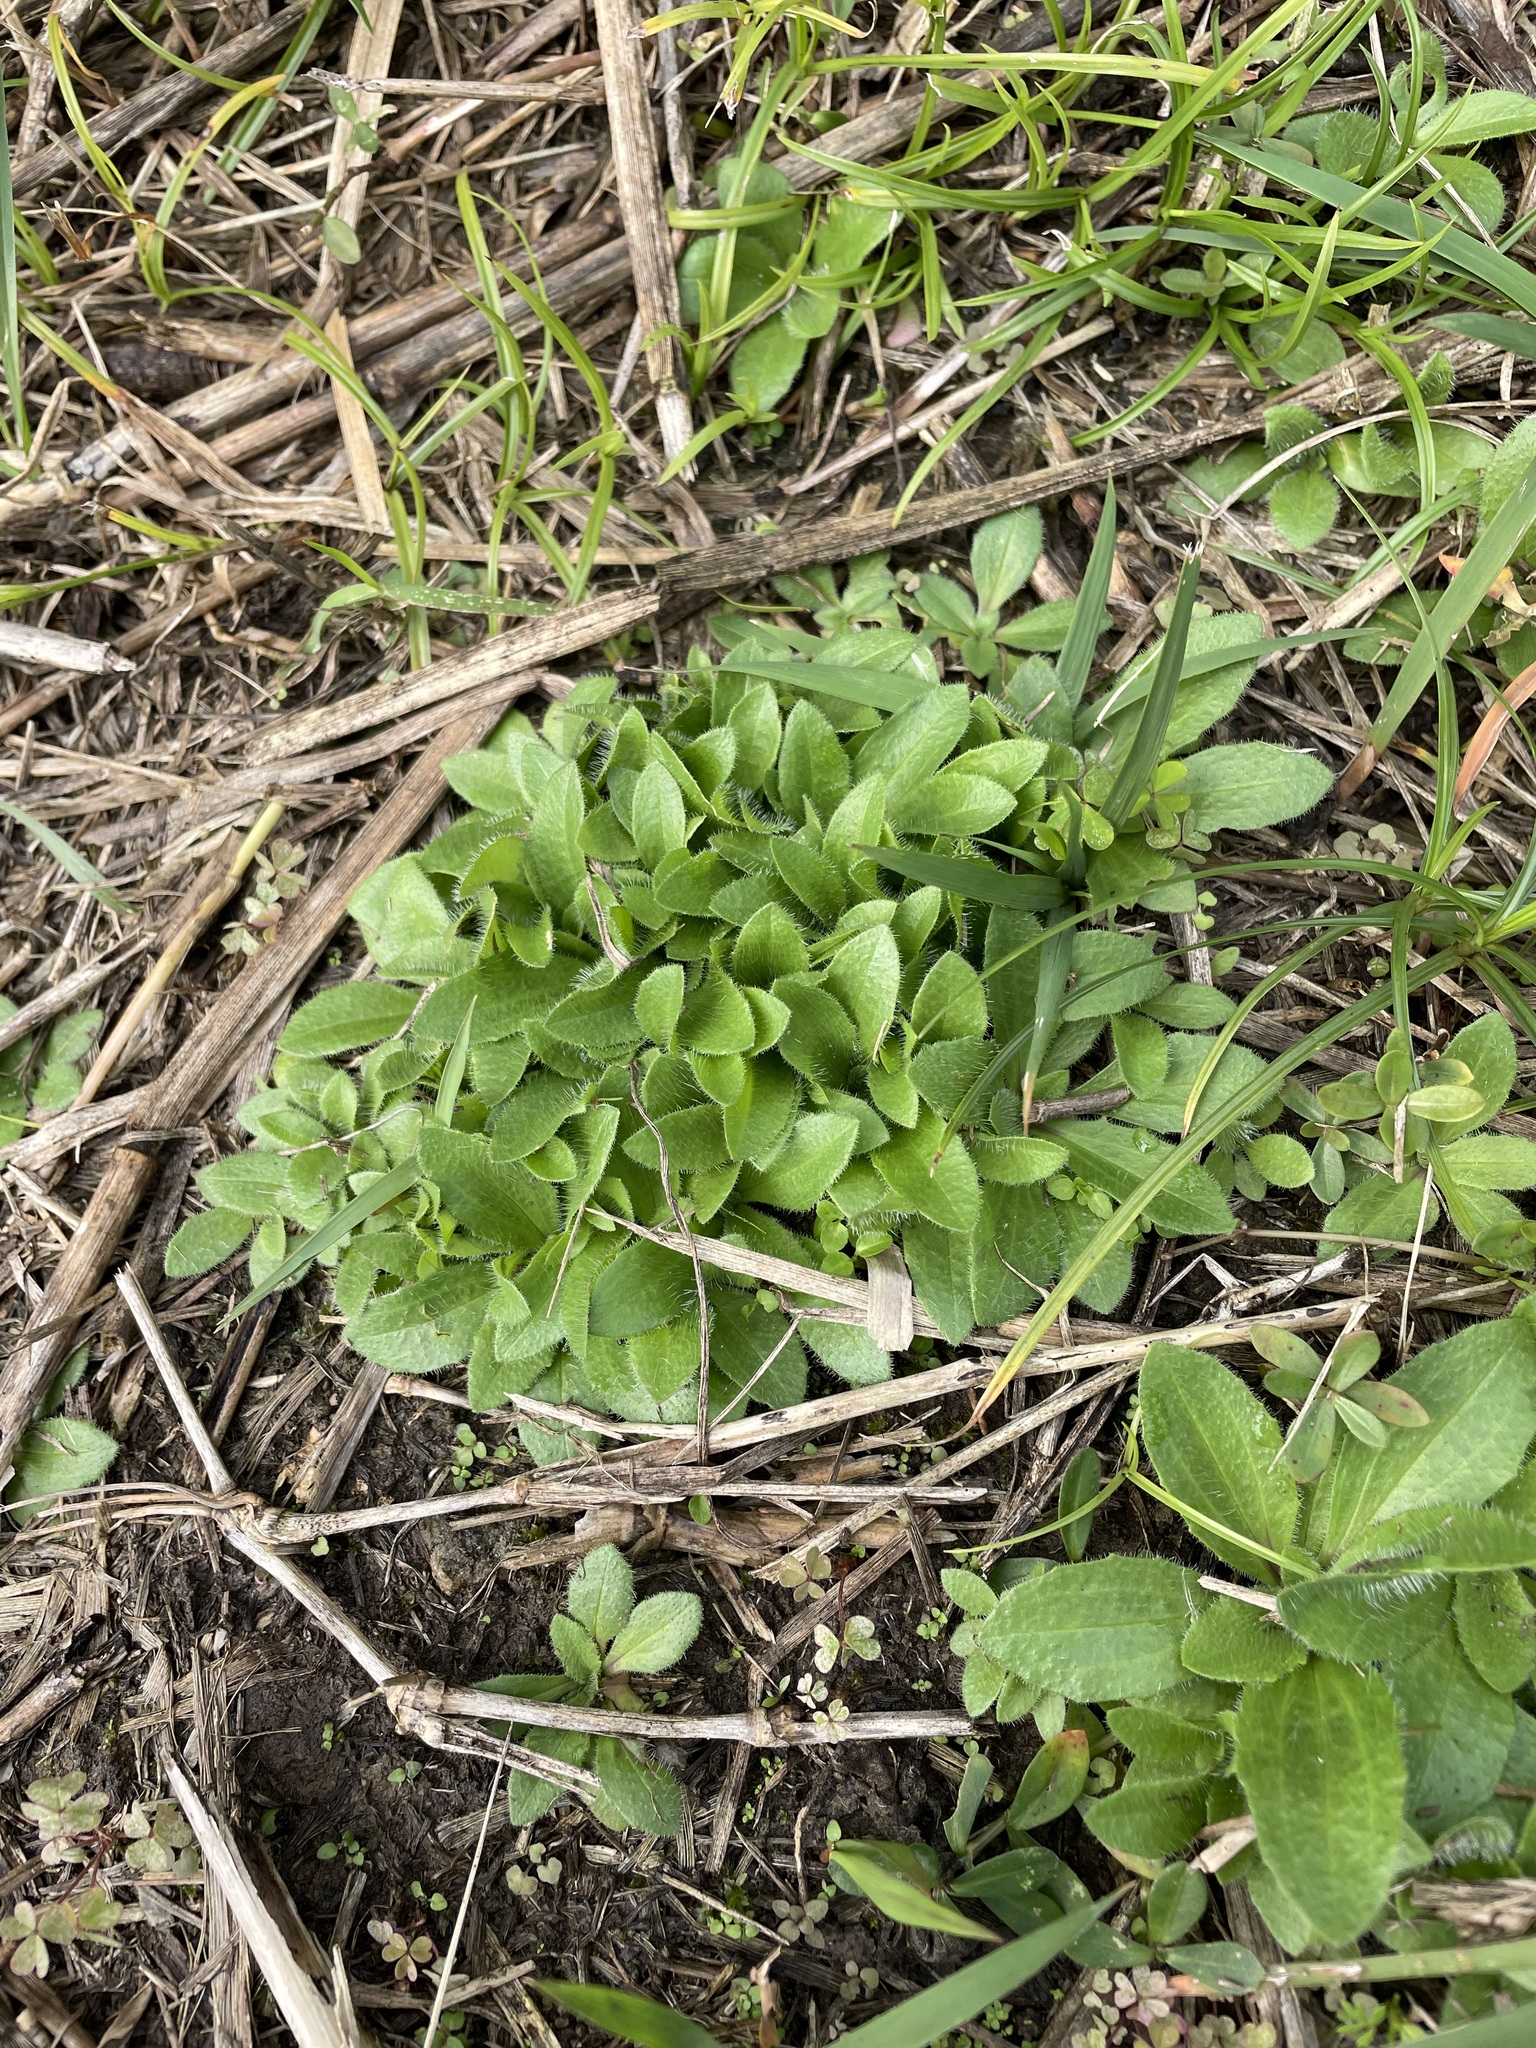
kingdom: Plantae
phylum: Tracheophyta
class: Magnoliopsida
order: Lamiales
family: Plantaginaceae
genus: Plantago
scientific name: Plantago virginica
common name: Hoary plantain
